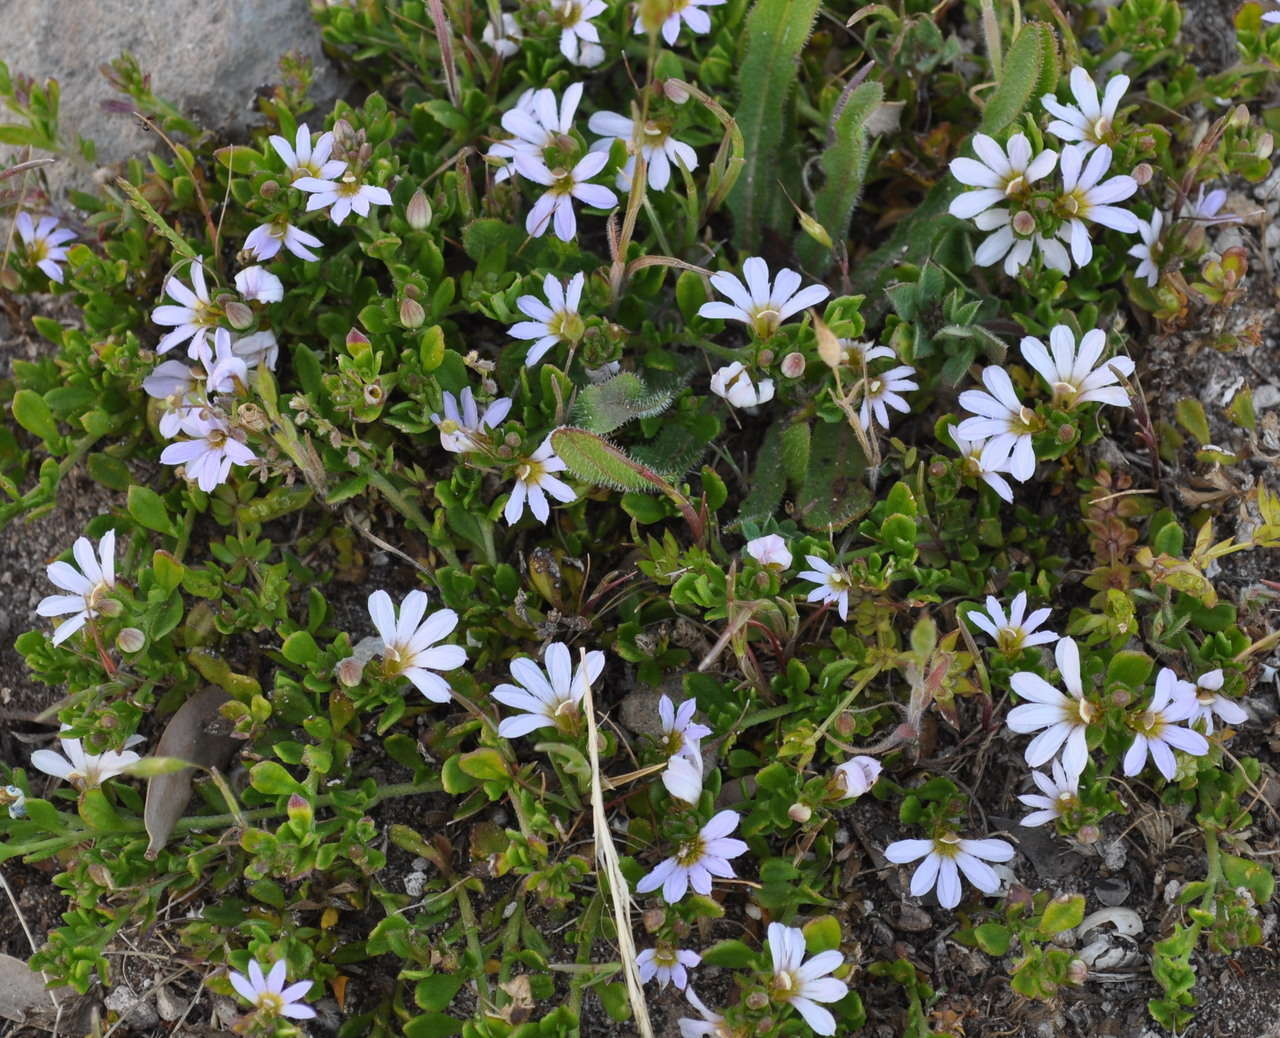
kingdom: Plantae
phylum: Tracheophyta
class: Magnoliopsida
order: Asterales
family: Goodeniaceae
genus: Scaevola
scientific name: Scaevola albida
